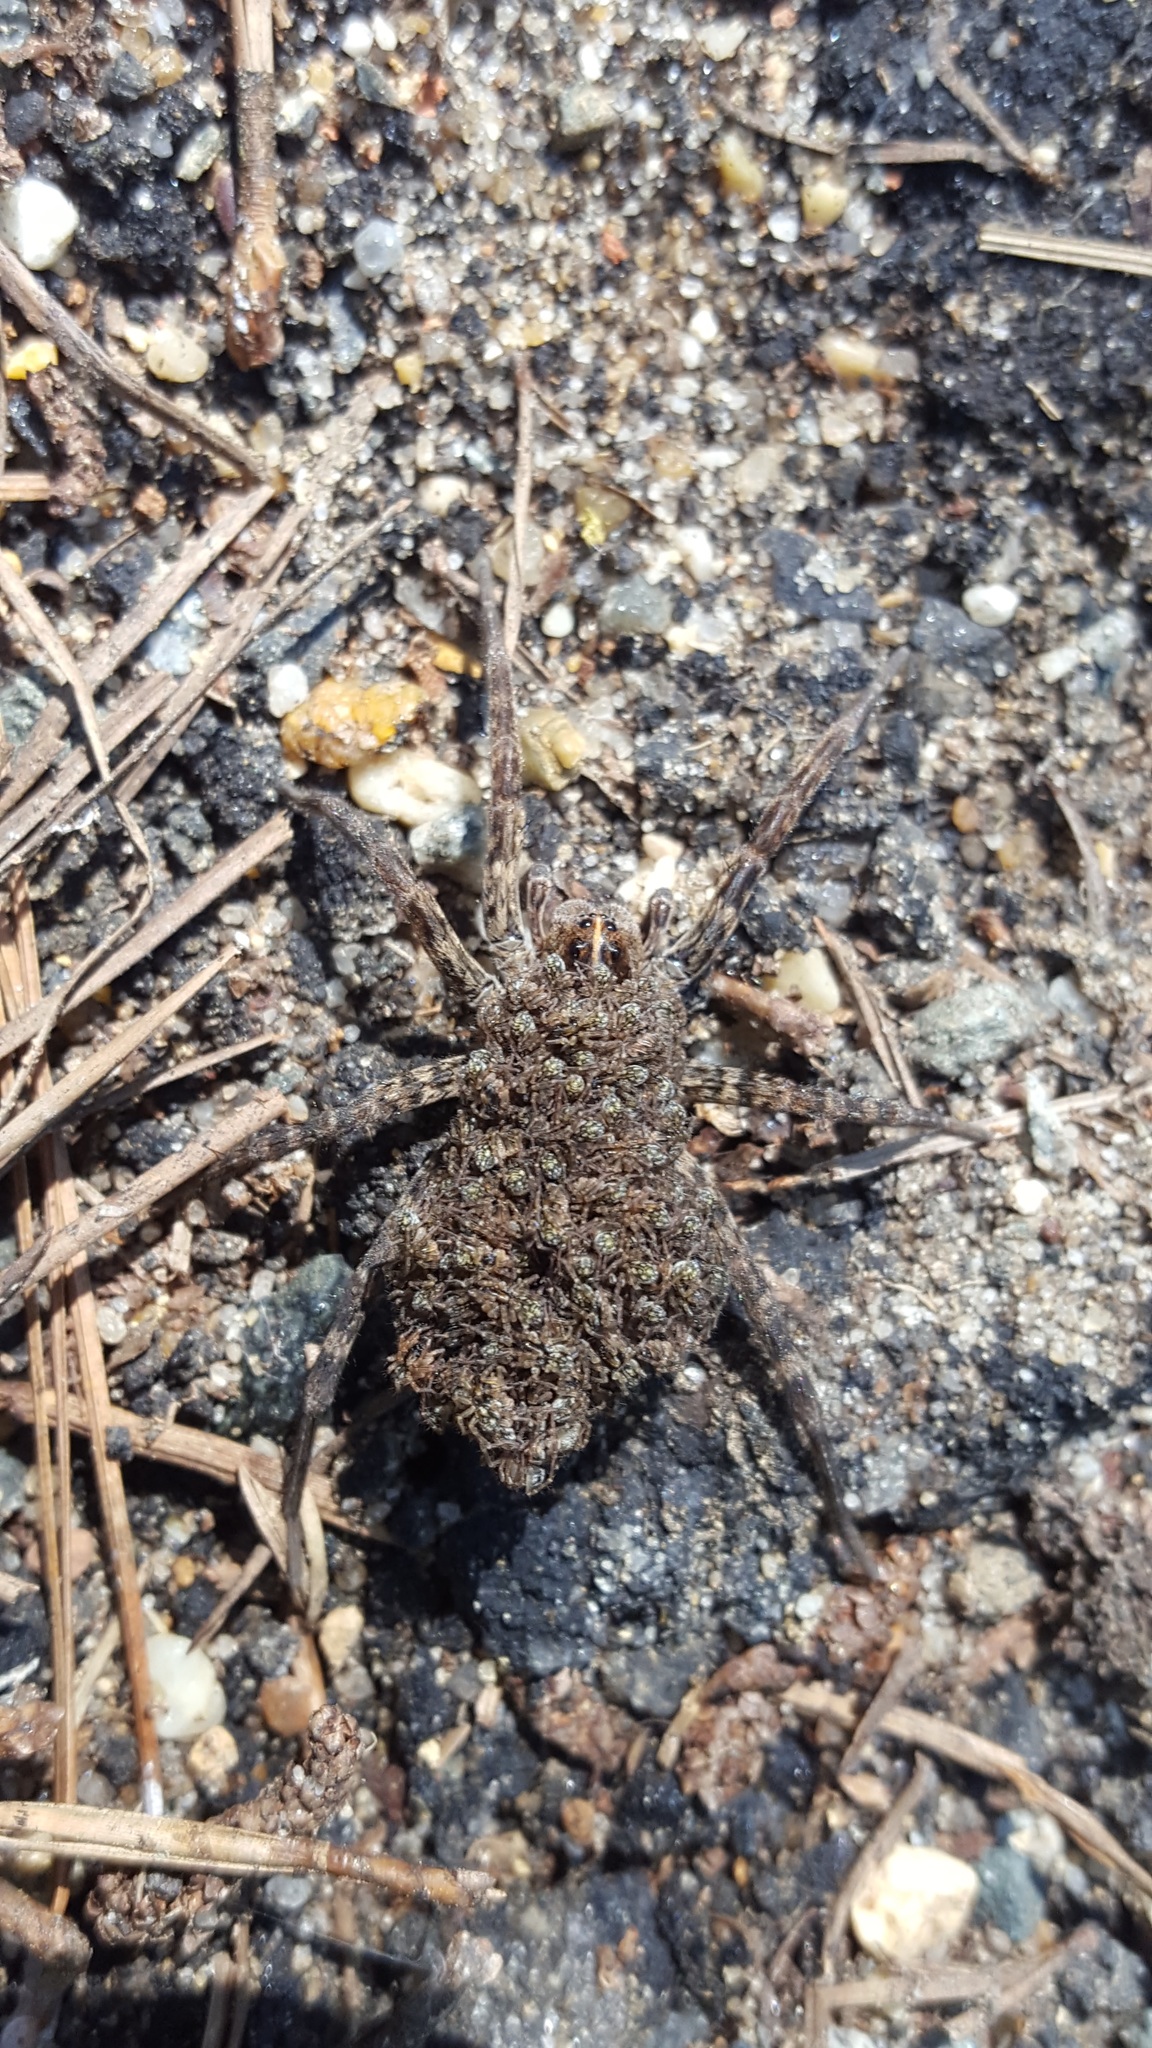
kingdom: Animalia
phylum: Arthropoda
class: Arachnida
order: Araneae
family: Pisauridae
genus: Dolomedes
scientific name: Dolomedes tenebrosus
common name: Dark fishing spider
